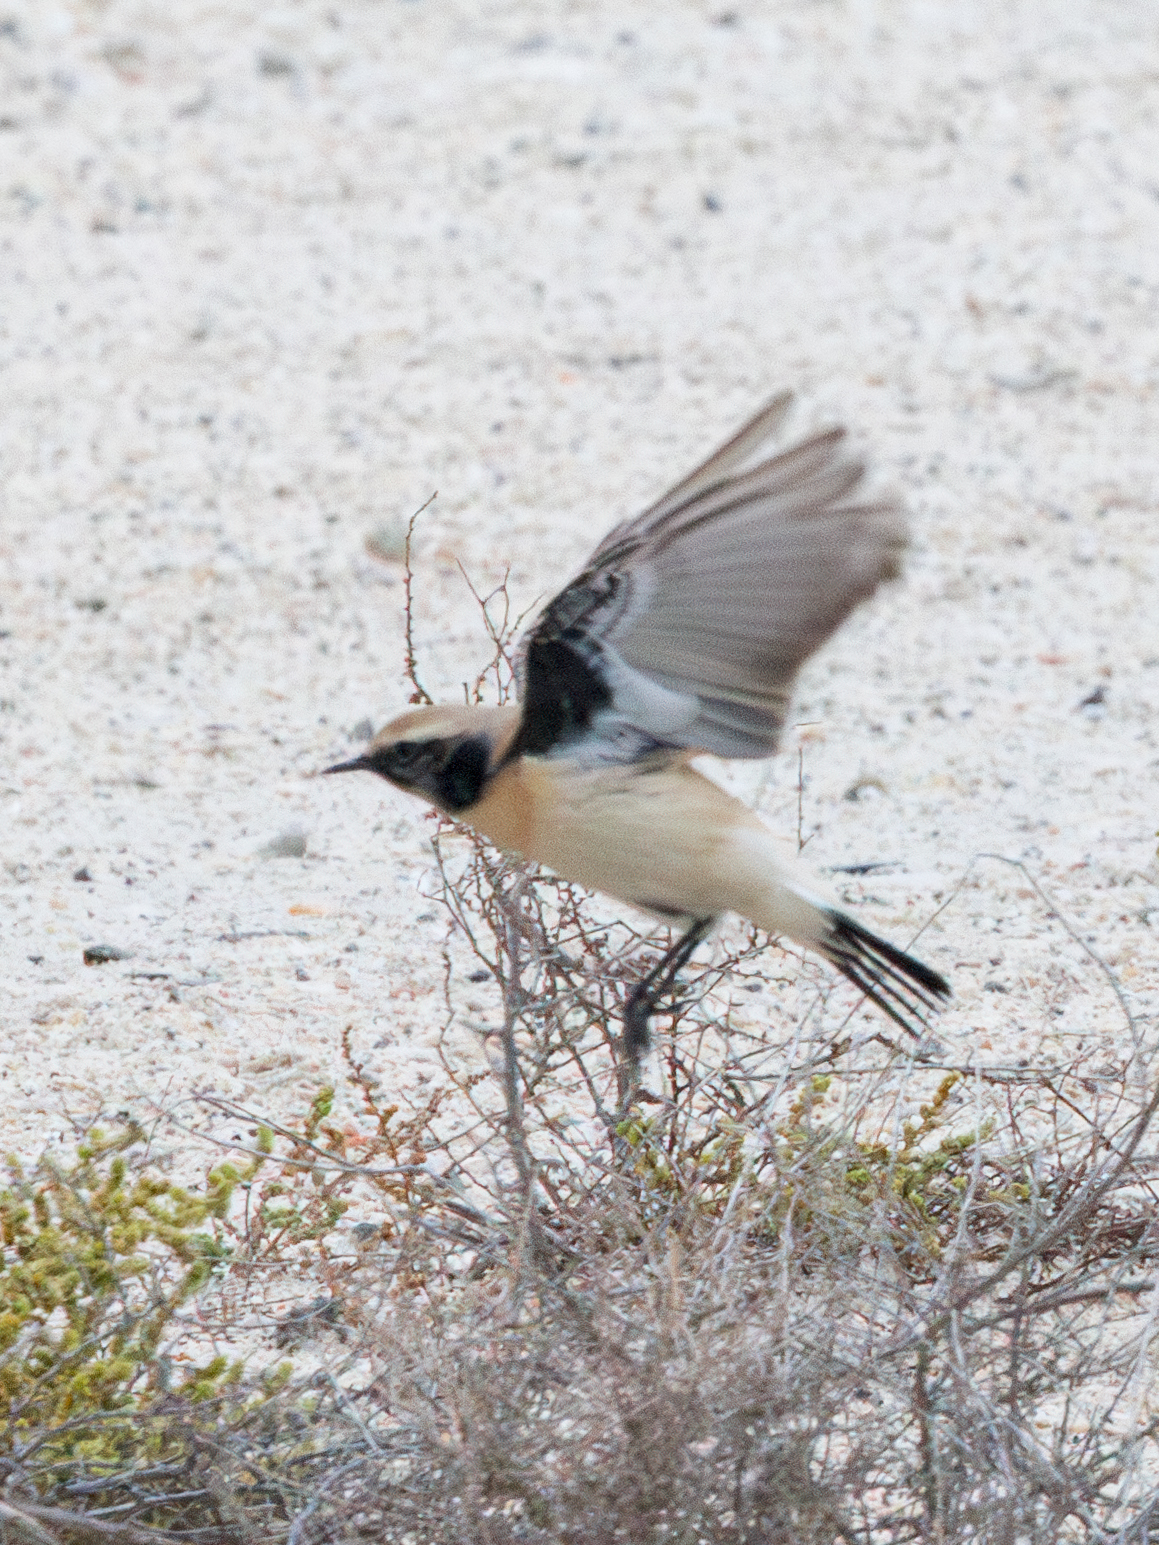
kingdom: Animalia
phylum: Chordata
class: Aves
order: Passeriformes
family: Muscicapidae
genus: Oenanthe
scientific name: Oenanthe deserti
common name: Desert wheatear
